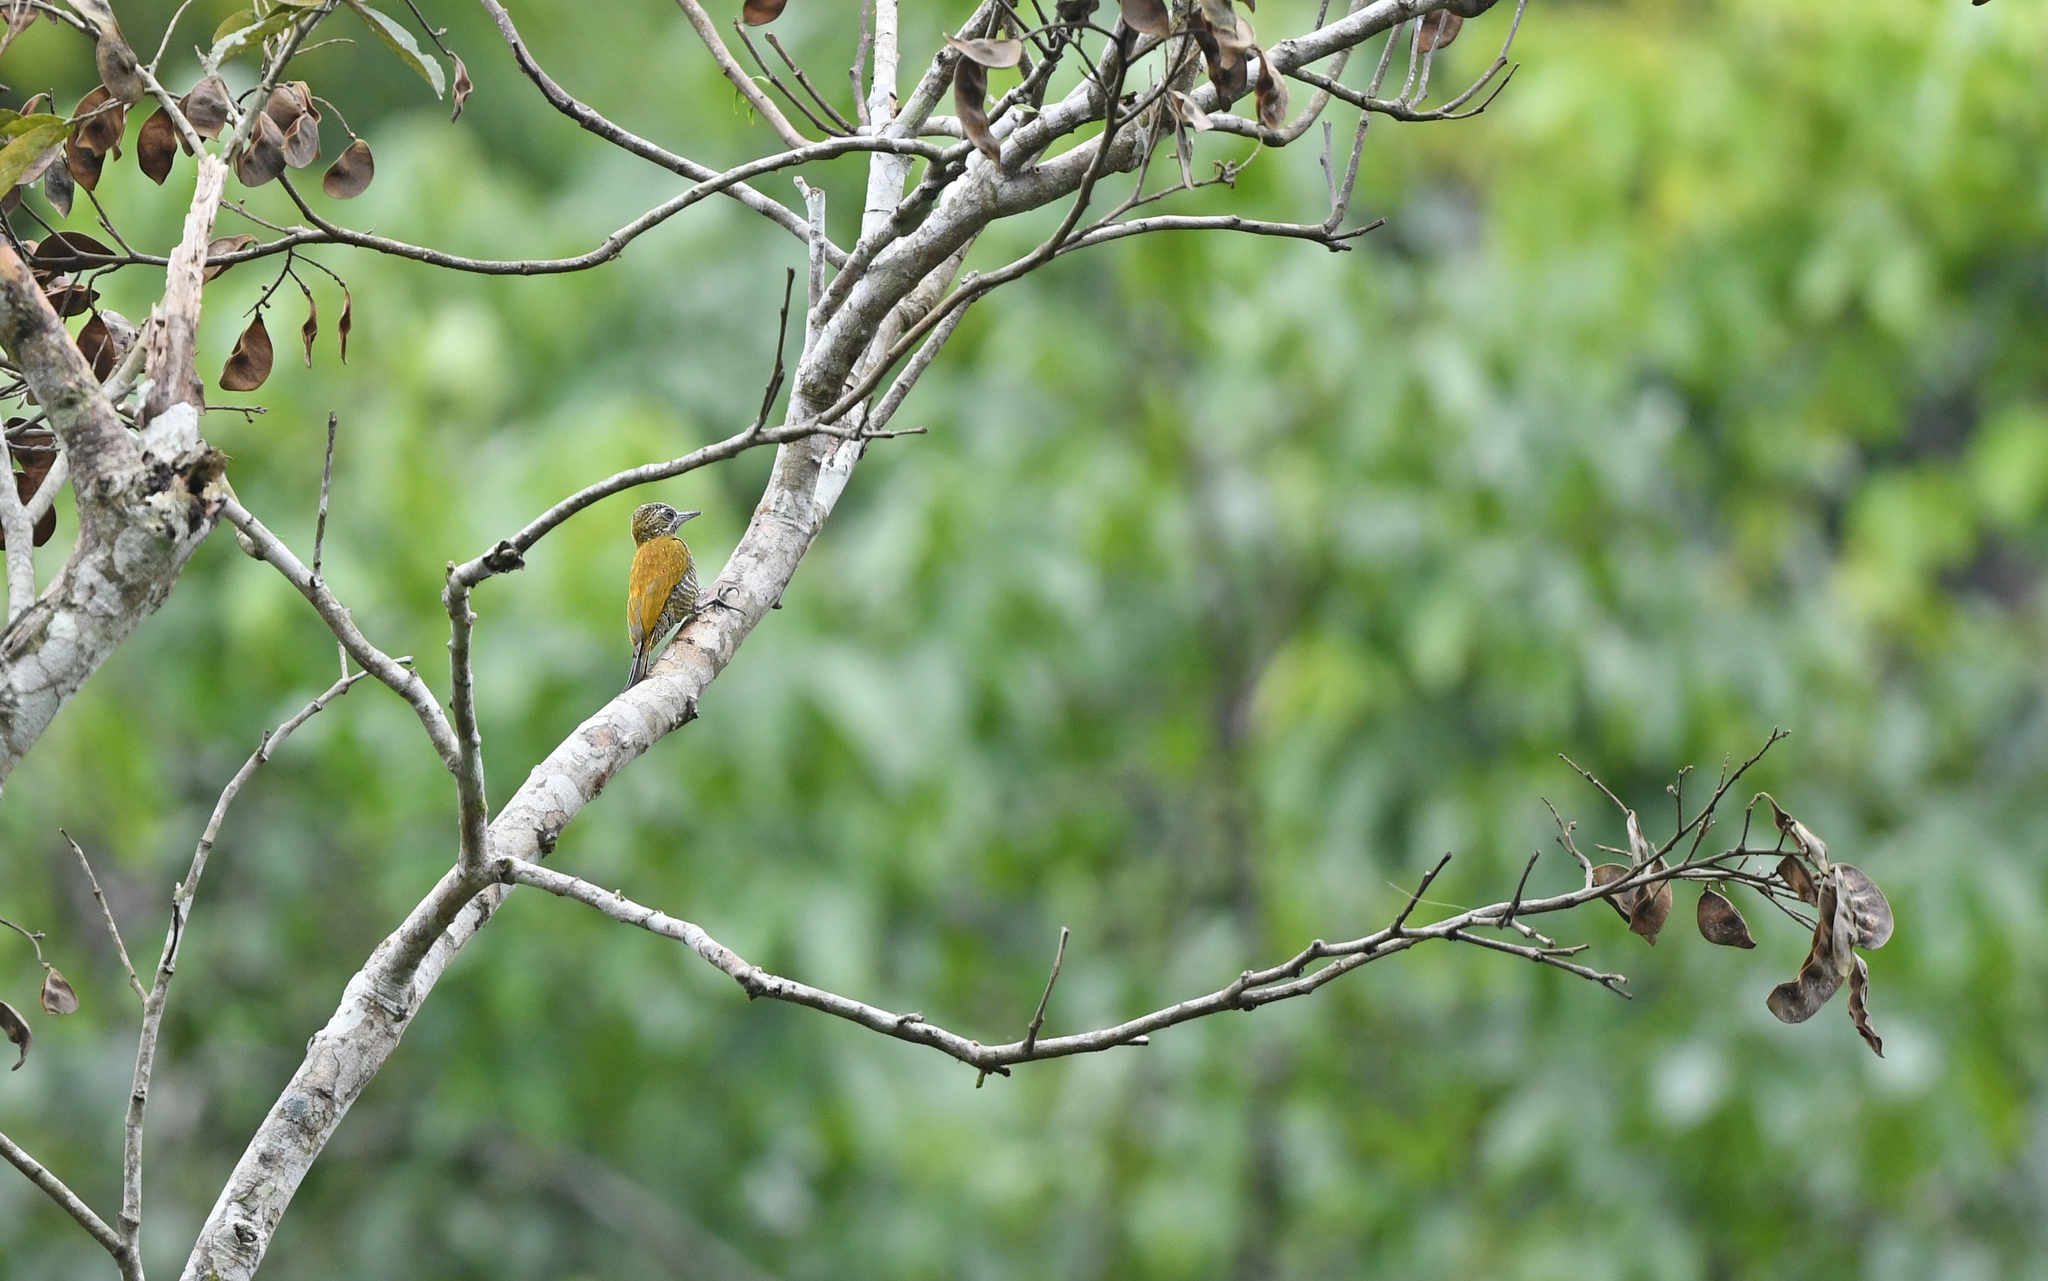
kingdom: Animalia
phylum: Chordata
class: Aves
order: Piciformes
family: Picidae
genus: Veniliornis
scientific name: Veniliornis passerinus
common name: Little woodpecker
